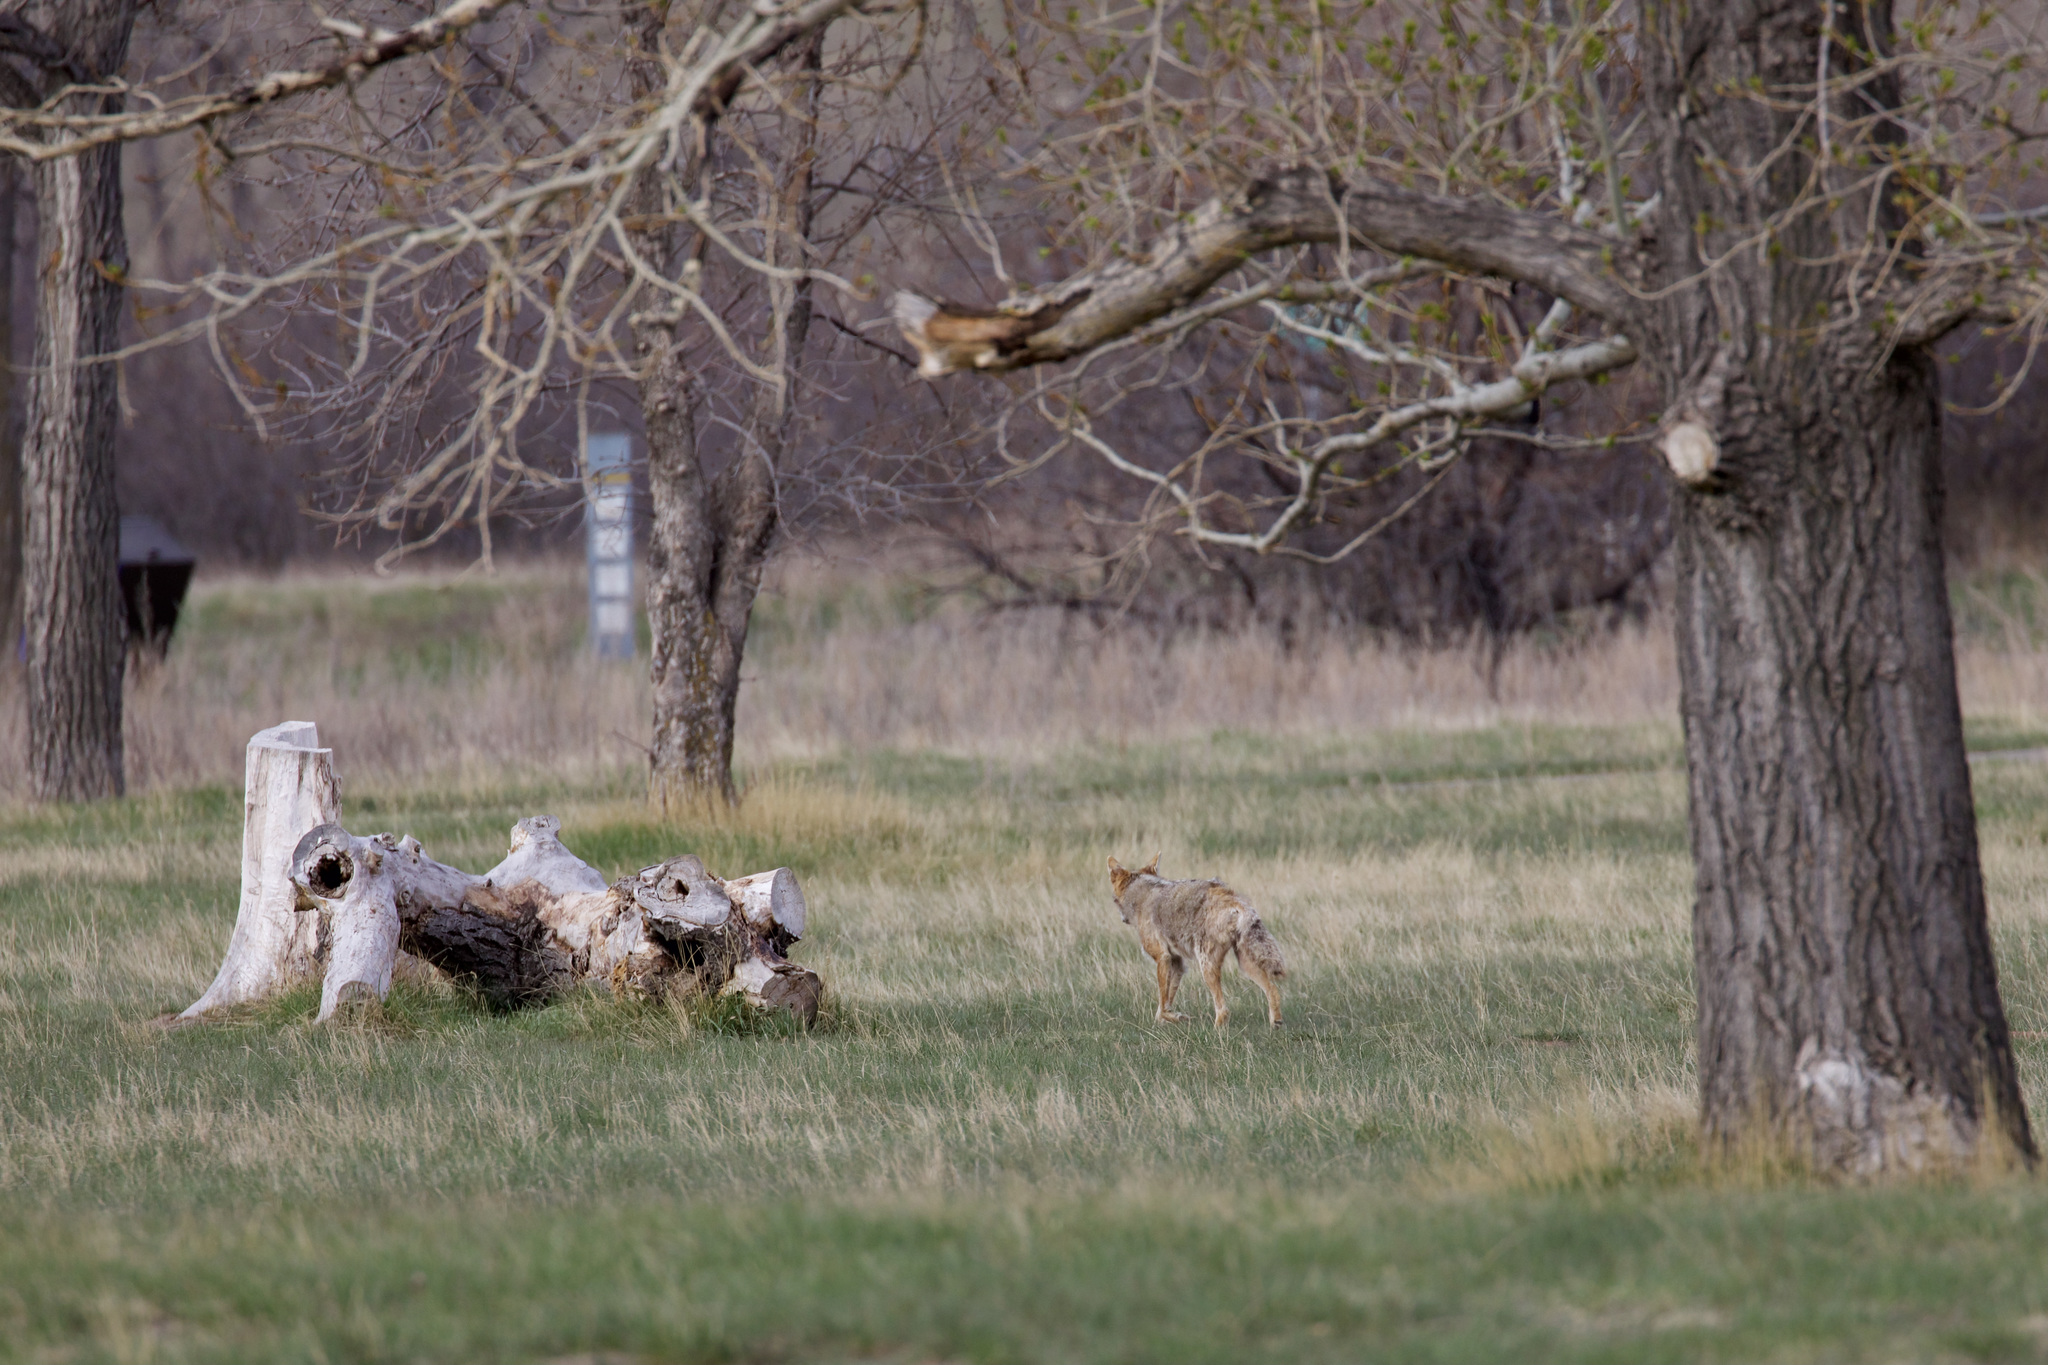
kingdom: Animalia
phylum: Chordata
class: Mammalia
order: Carnivora
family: Canidae
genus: Canis
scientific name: Canis latrans
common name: Coyote
